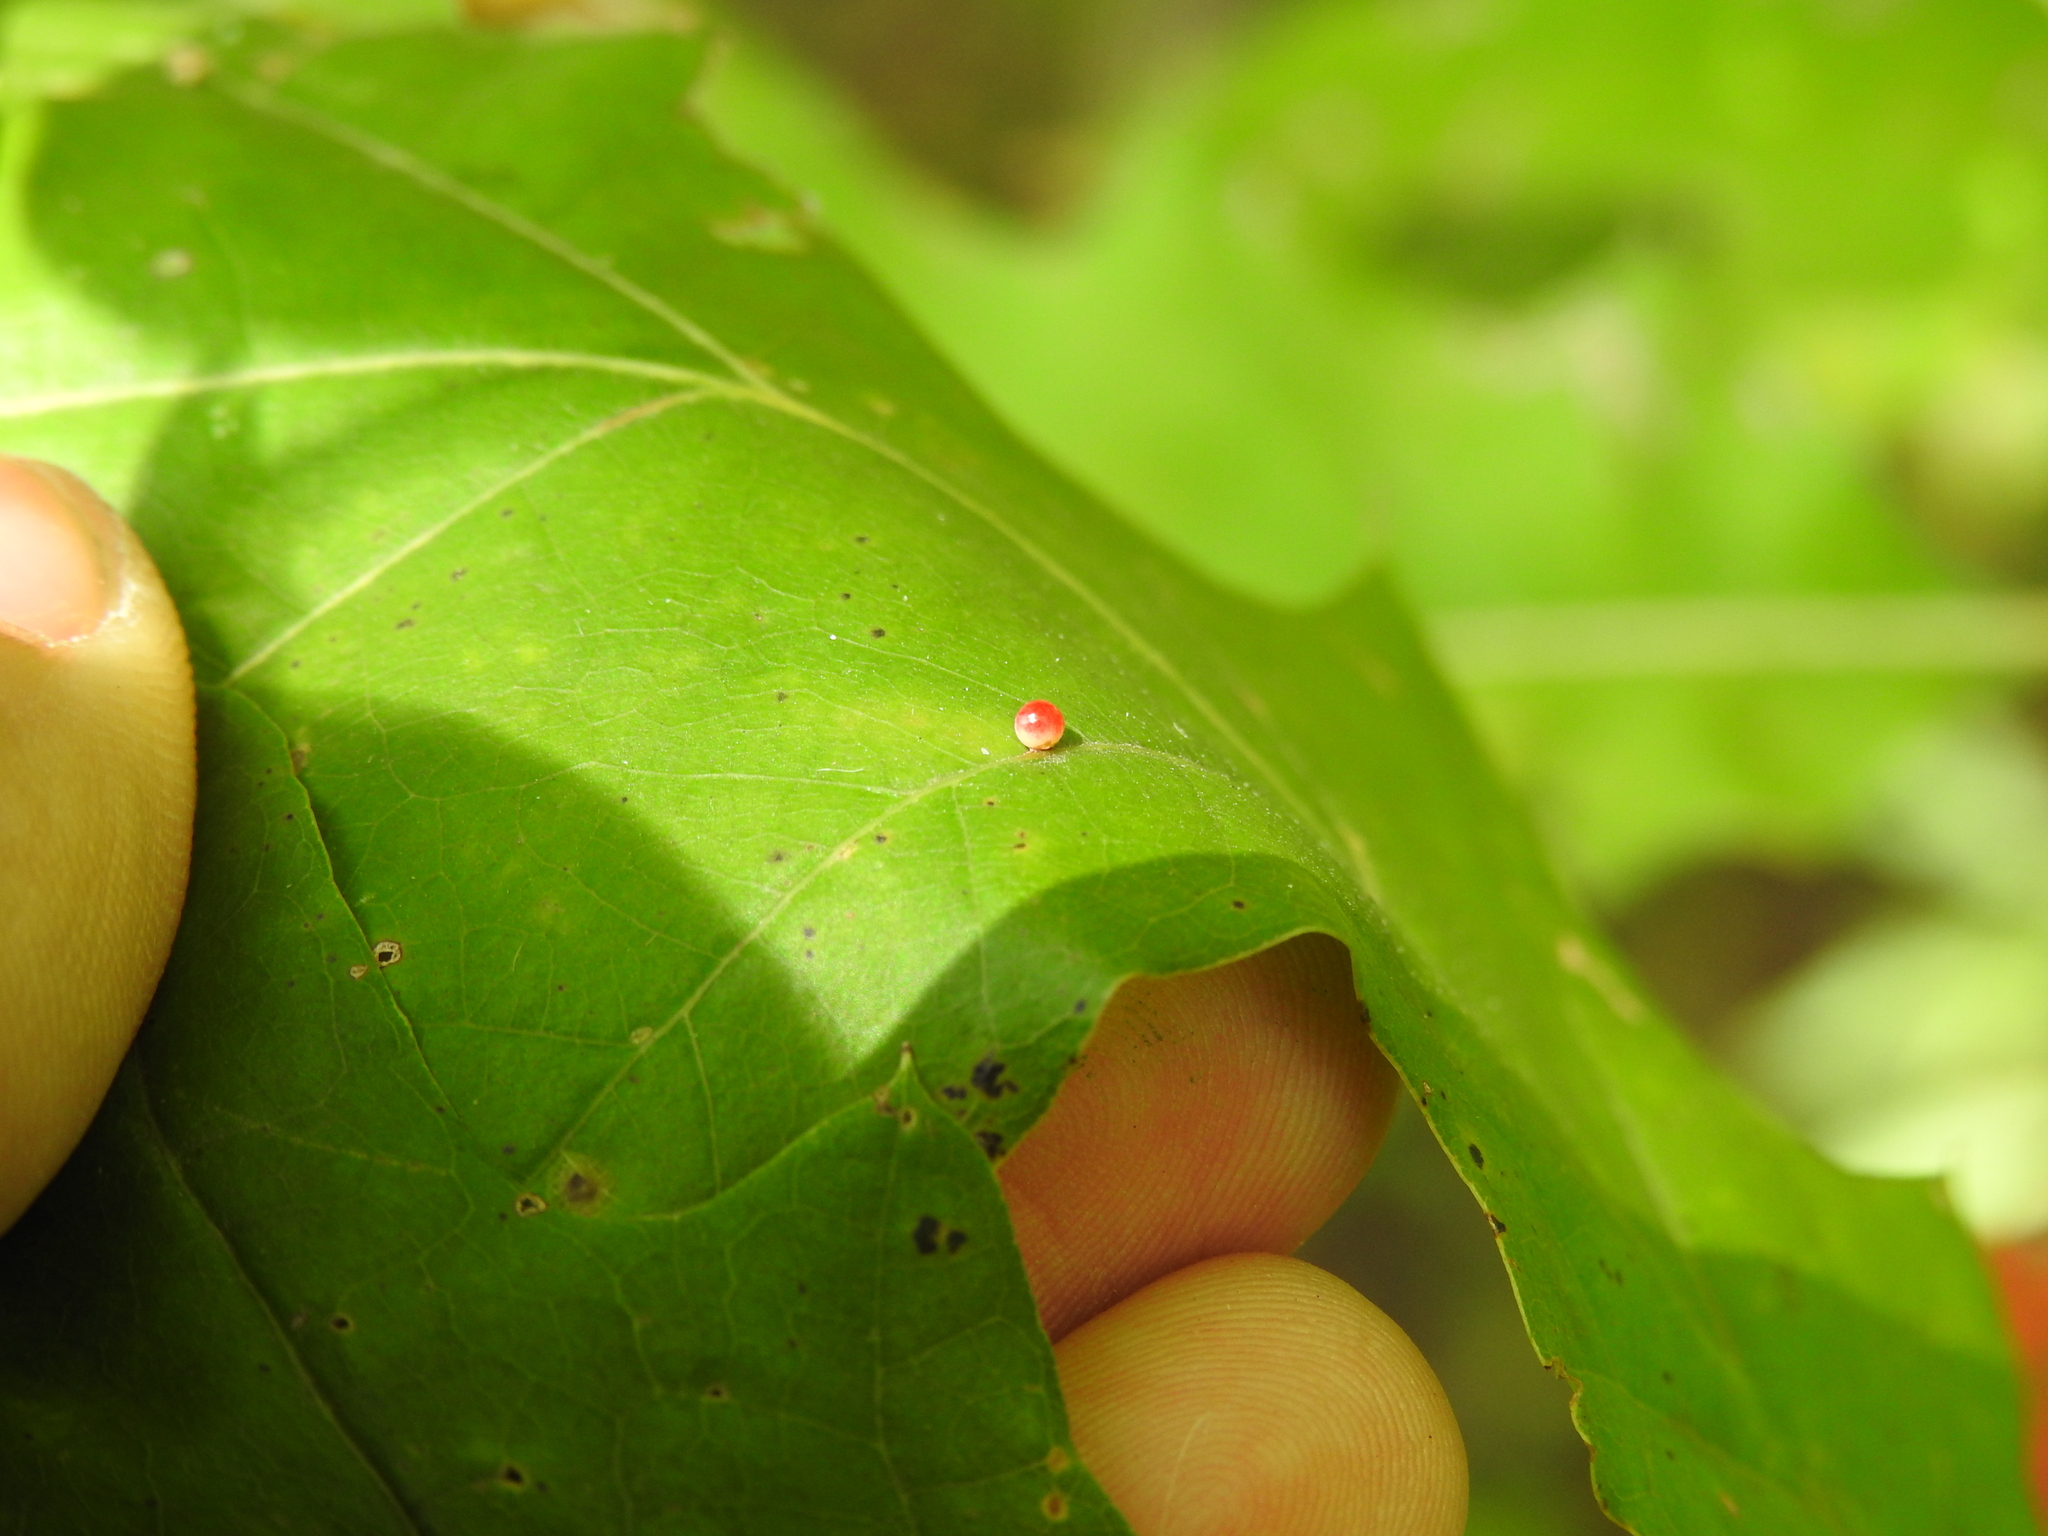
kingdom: Animalia
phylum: Arthropoda
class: Insecta
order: Hymenoptera
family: Cynipidae
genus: Zopheroteras
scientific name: Zopheroteras
